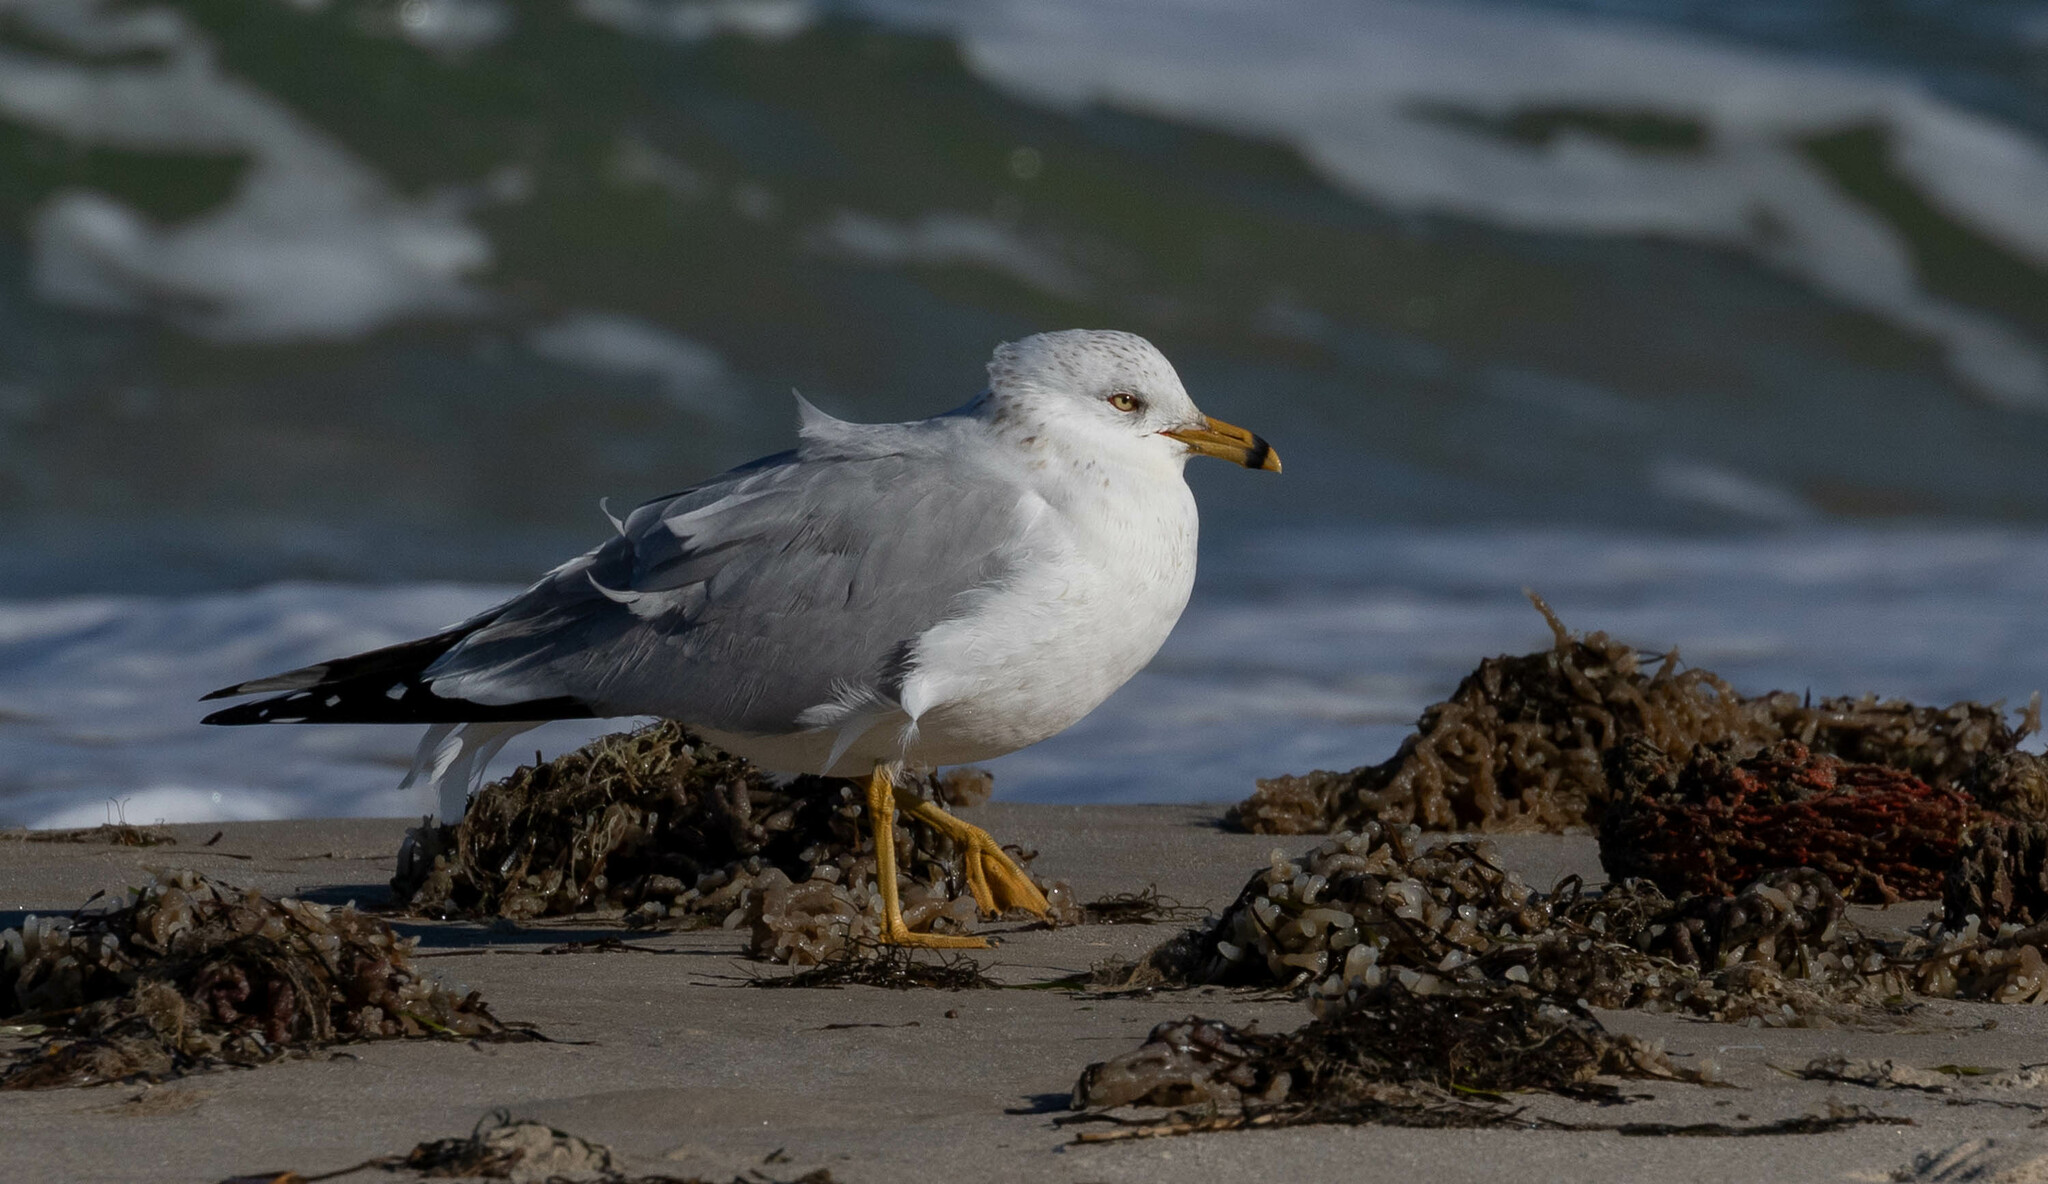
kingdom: Animalia
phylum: Chordata
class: Aves
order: Charadriiformes
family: Laridae
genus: Larus
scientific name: Larus delawarensis
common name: Ring-billed gull
